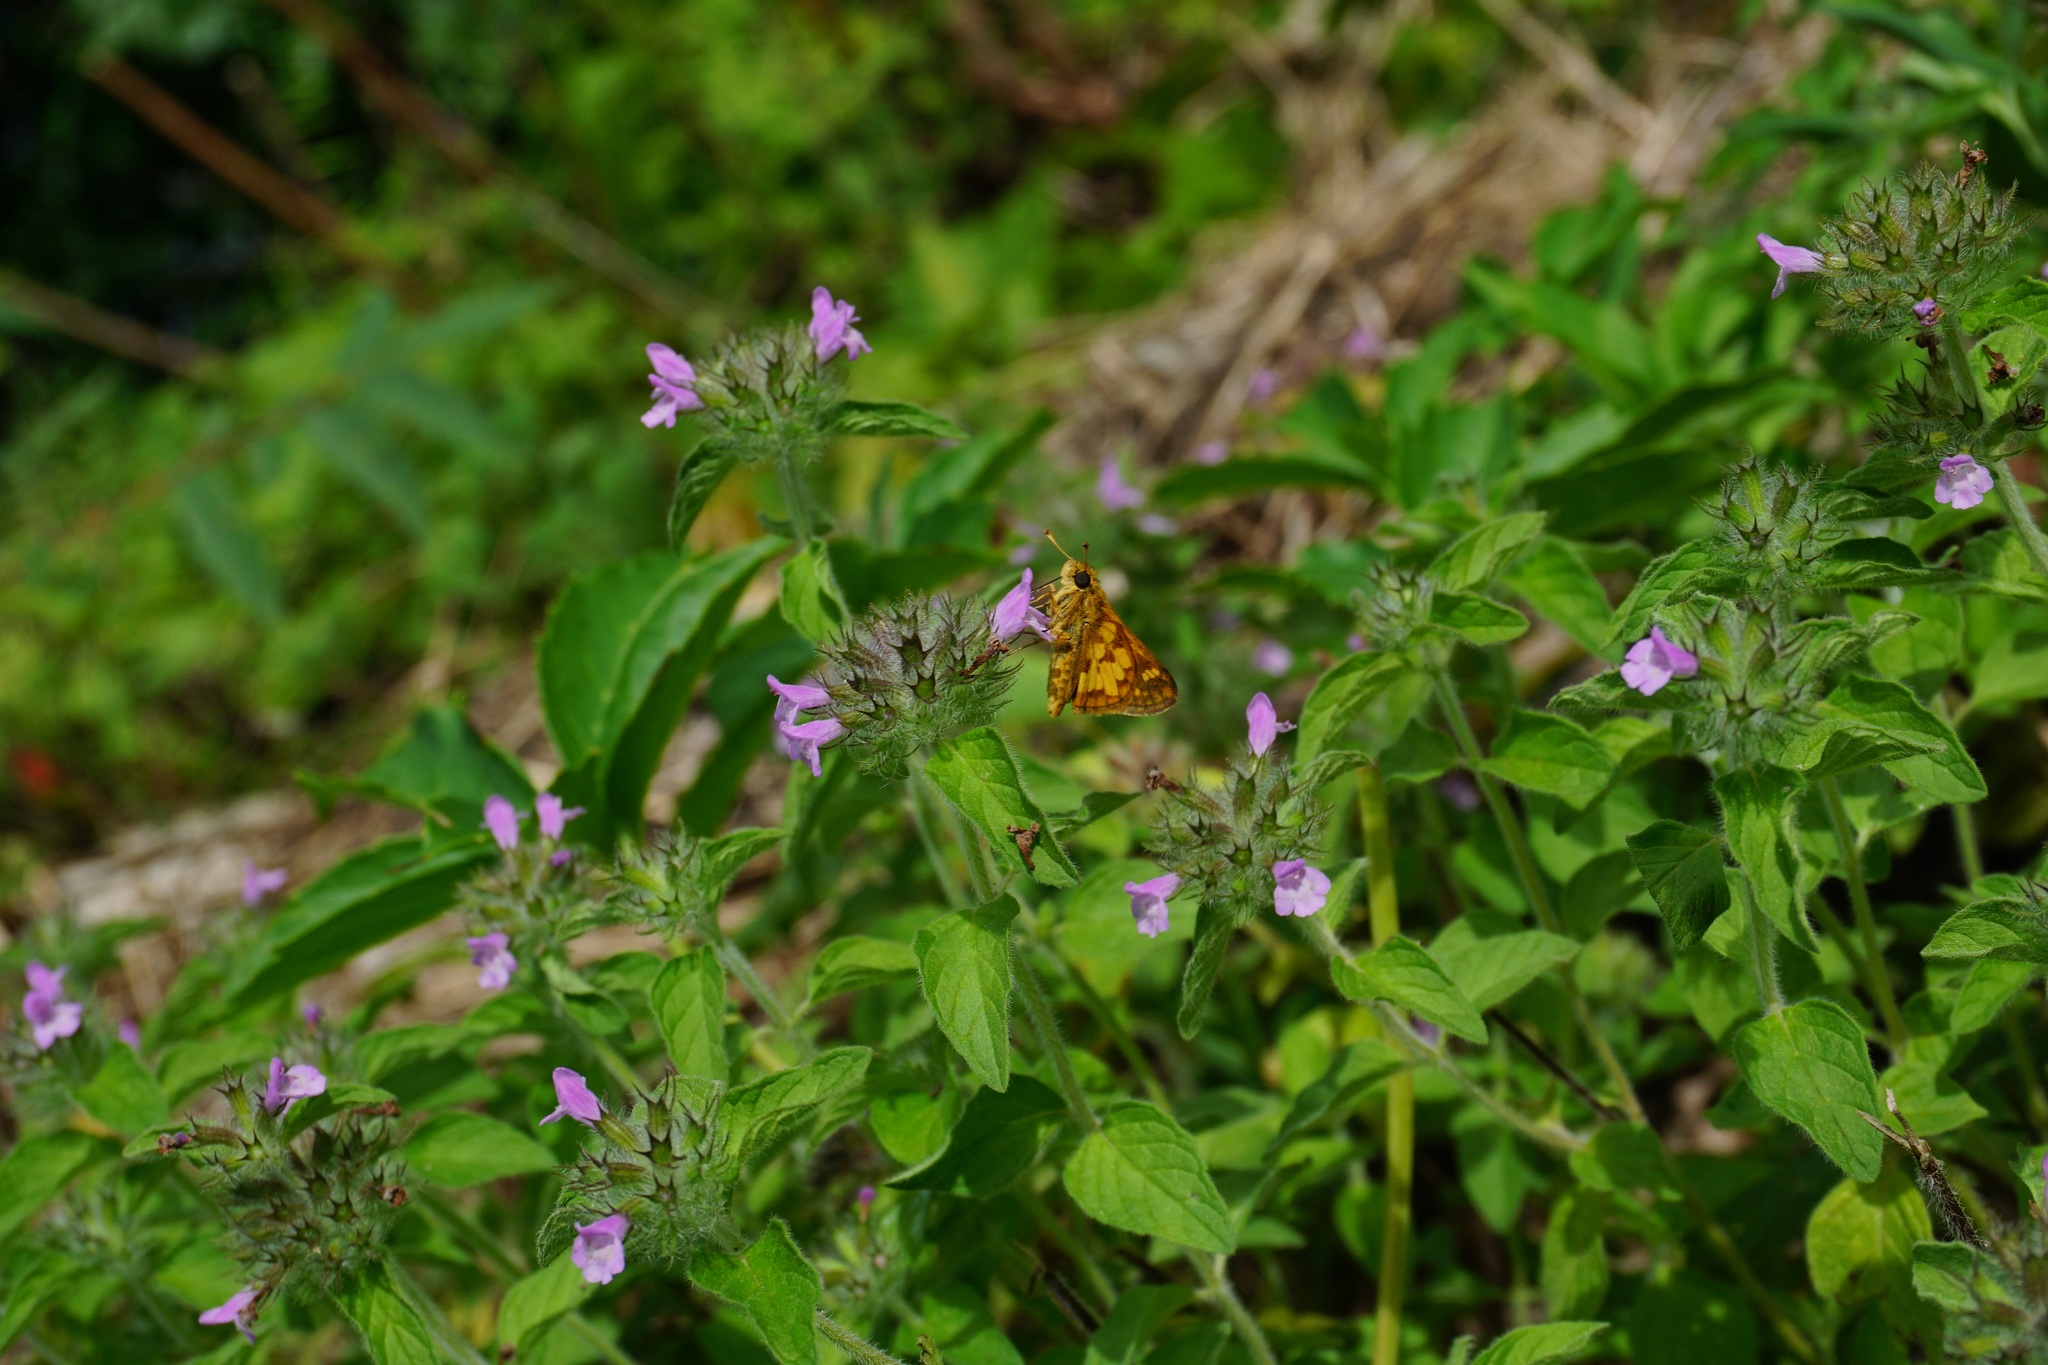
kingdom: Animalia
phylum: Arthropoda
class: Insecta
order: Lepidoptera
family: Hesperiidae
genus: Polites
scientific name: Polites coras
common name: Peck's skipper
